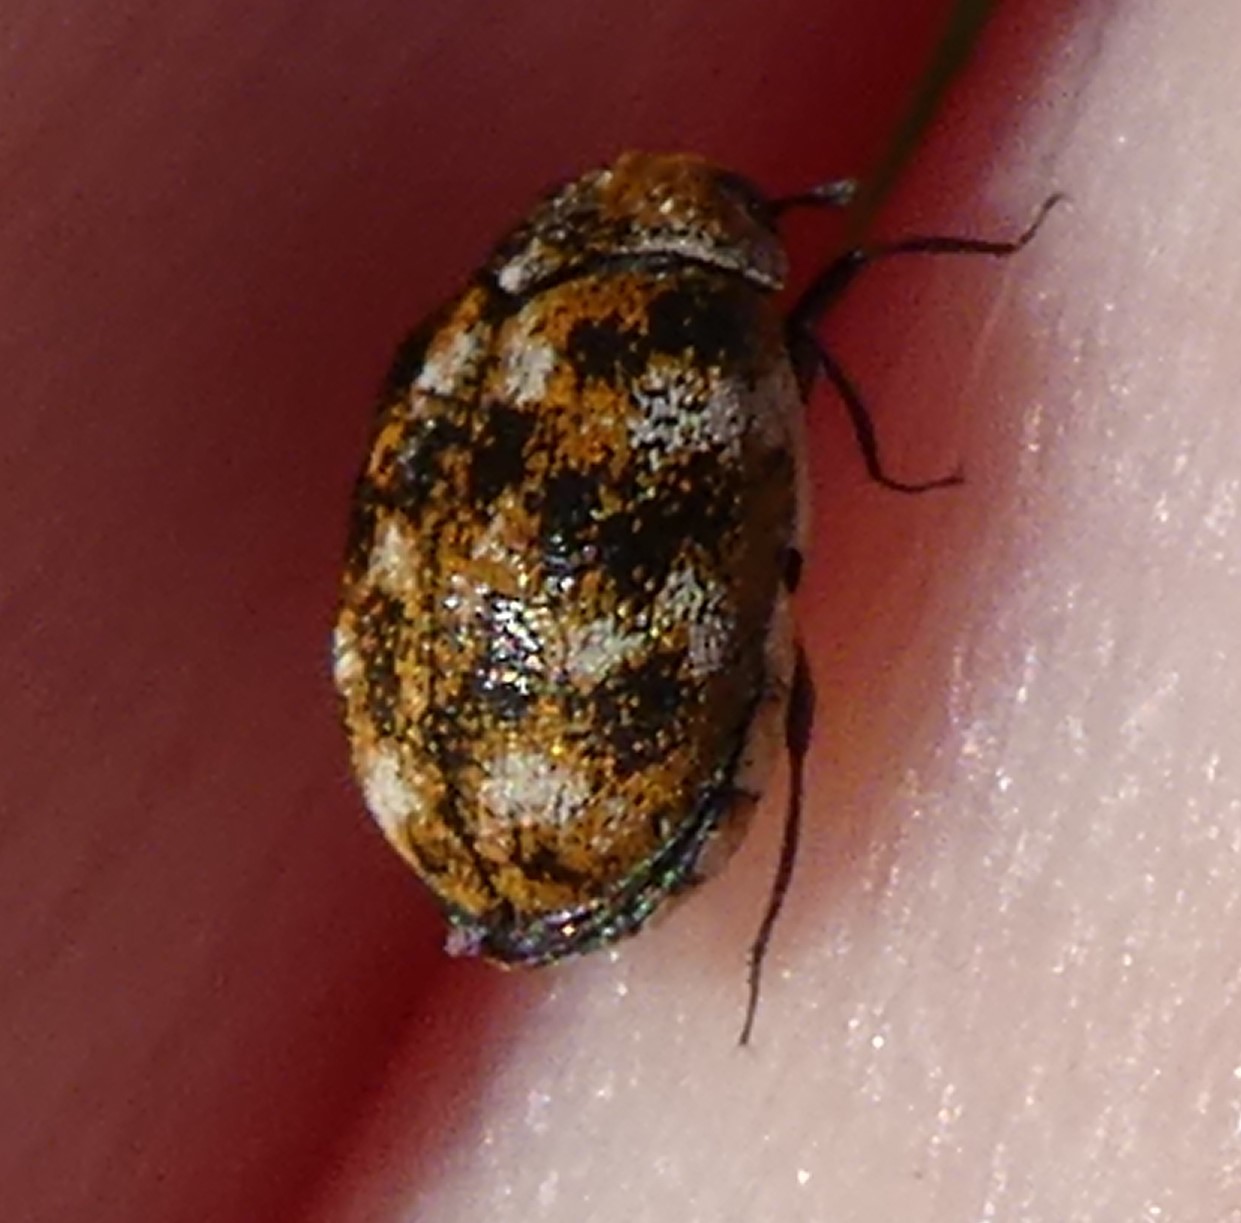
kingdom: Animalia
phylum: Arthropoda
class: Insecta
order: Coleoptera
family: Dermestidae
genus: Anthrenus
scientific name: Anthrenus verbasci
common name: Varied carpet beetle
